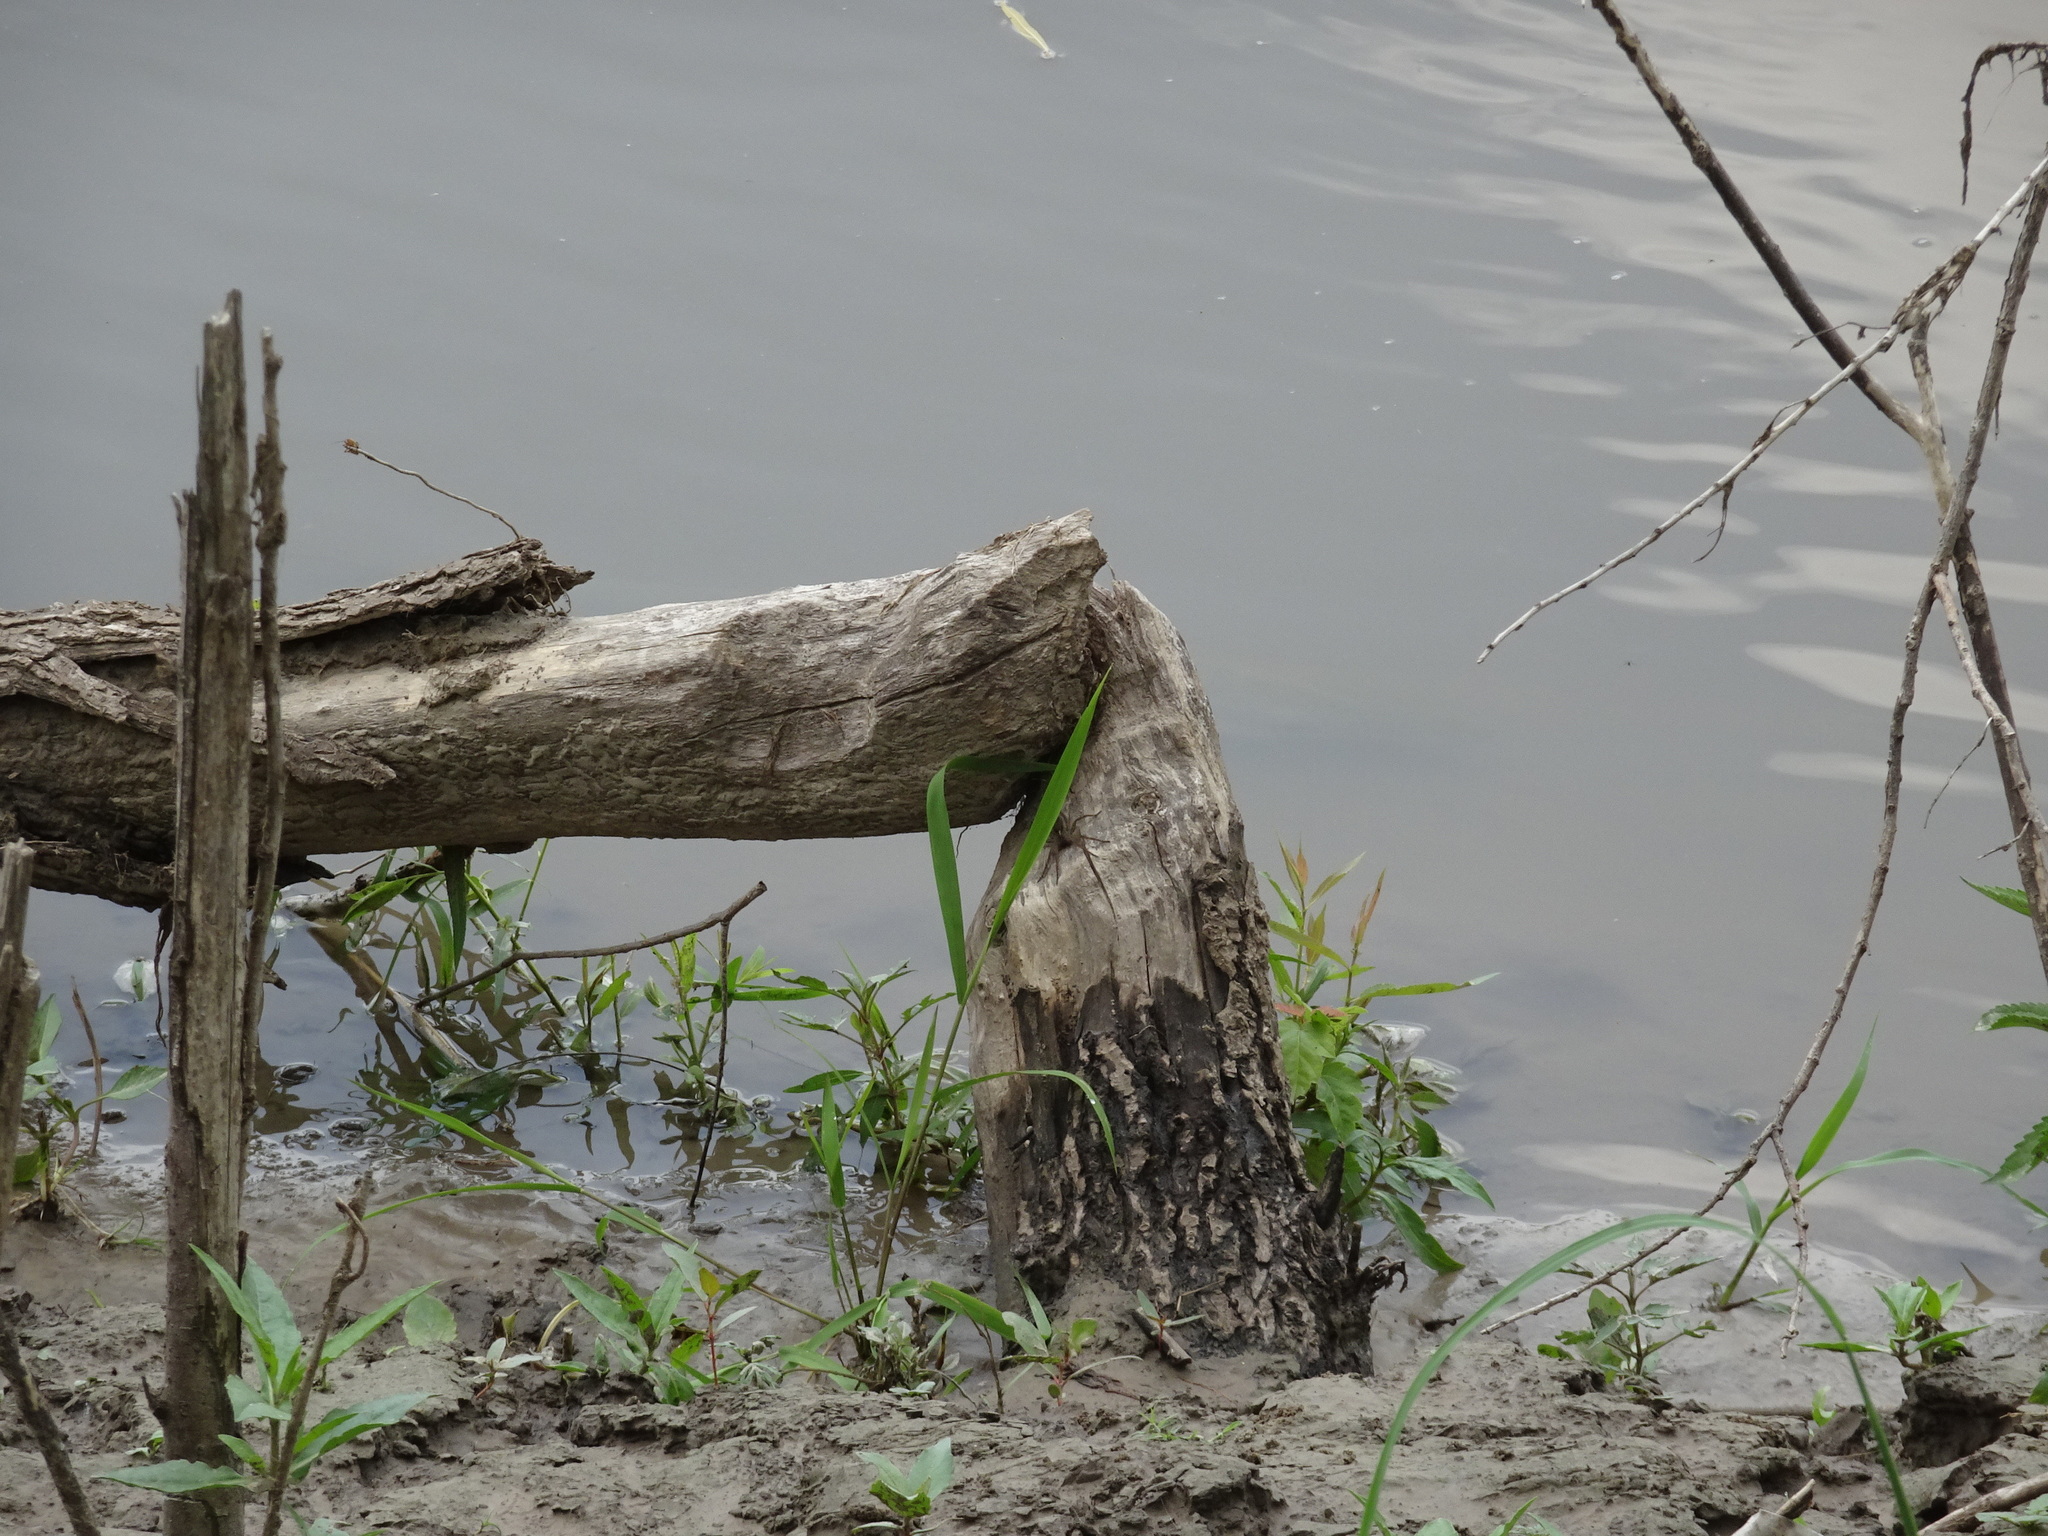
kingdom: Animalia
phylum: Chordata
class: Mammalia
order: Rodentia
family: Castoridae
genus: Castor
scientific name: Castor canadensis
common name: American beaver
